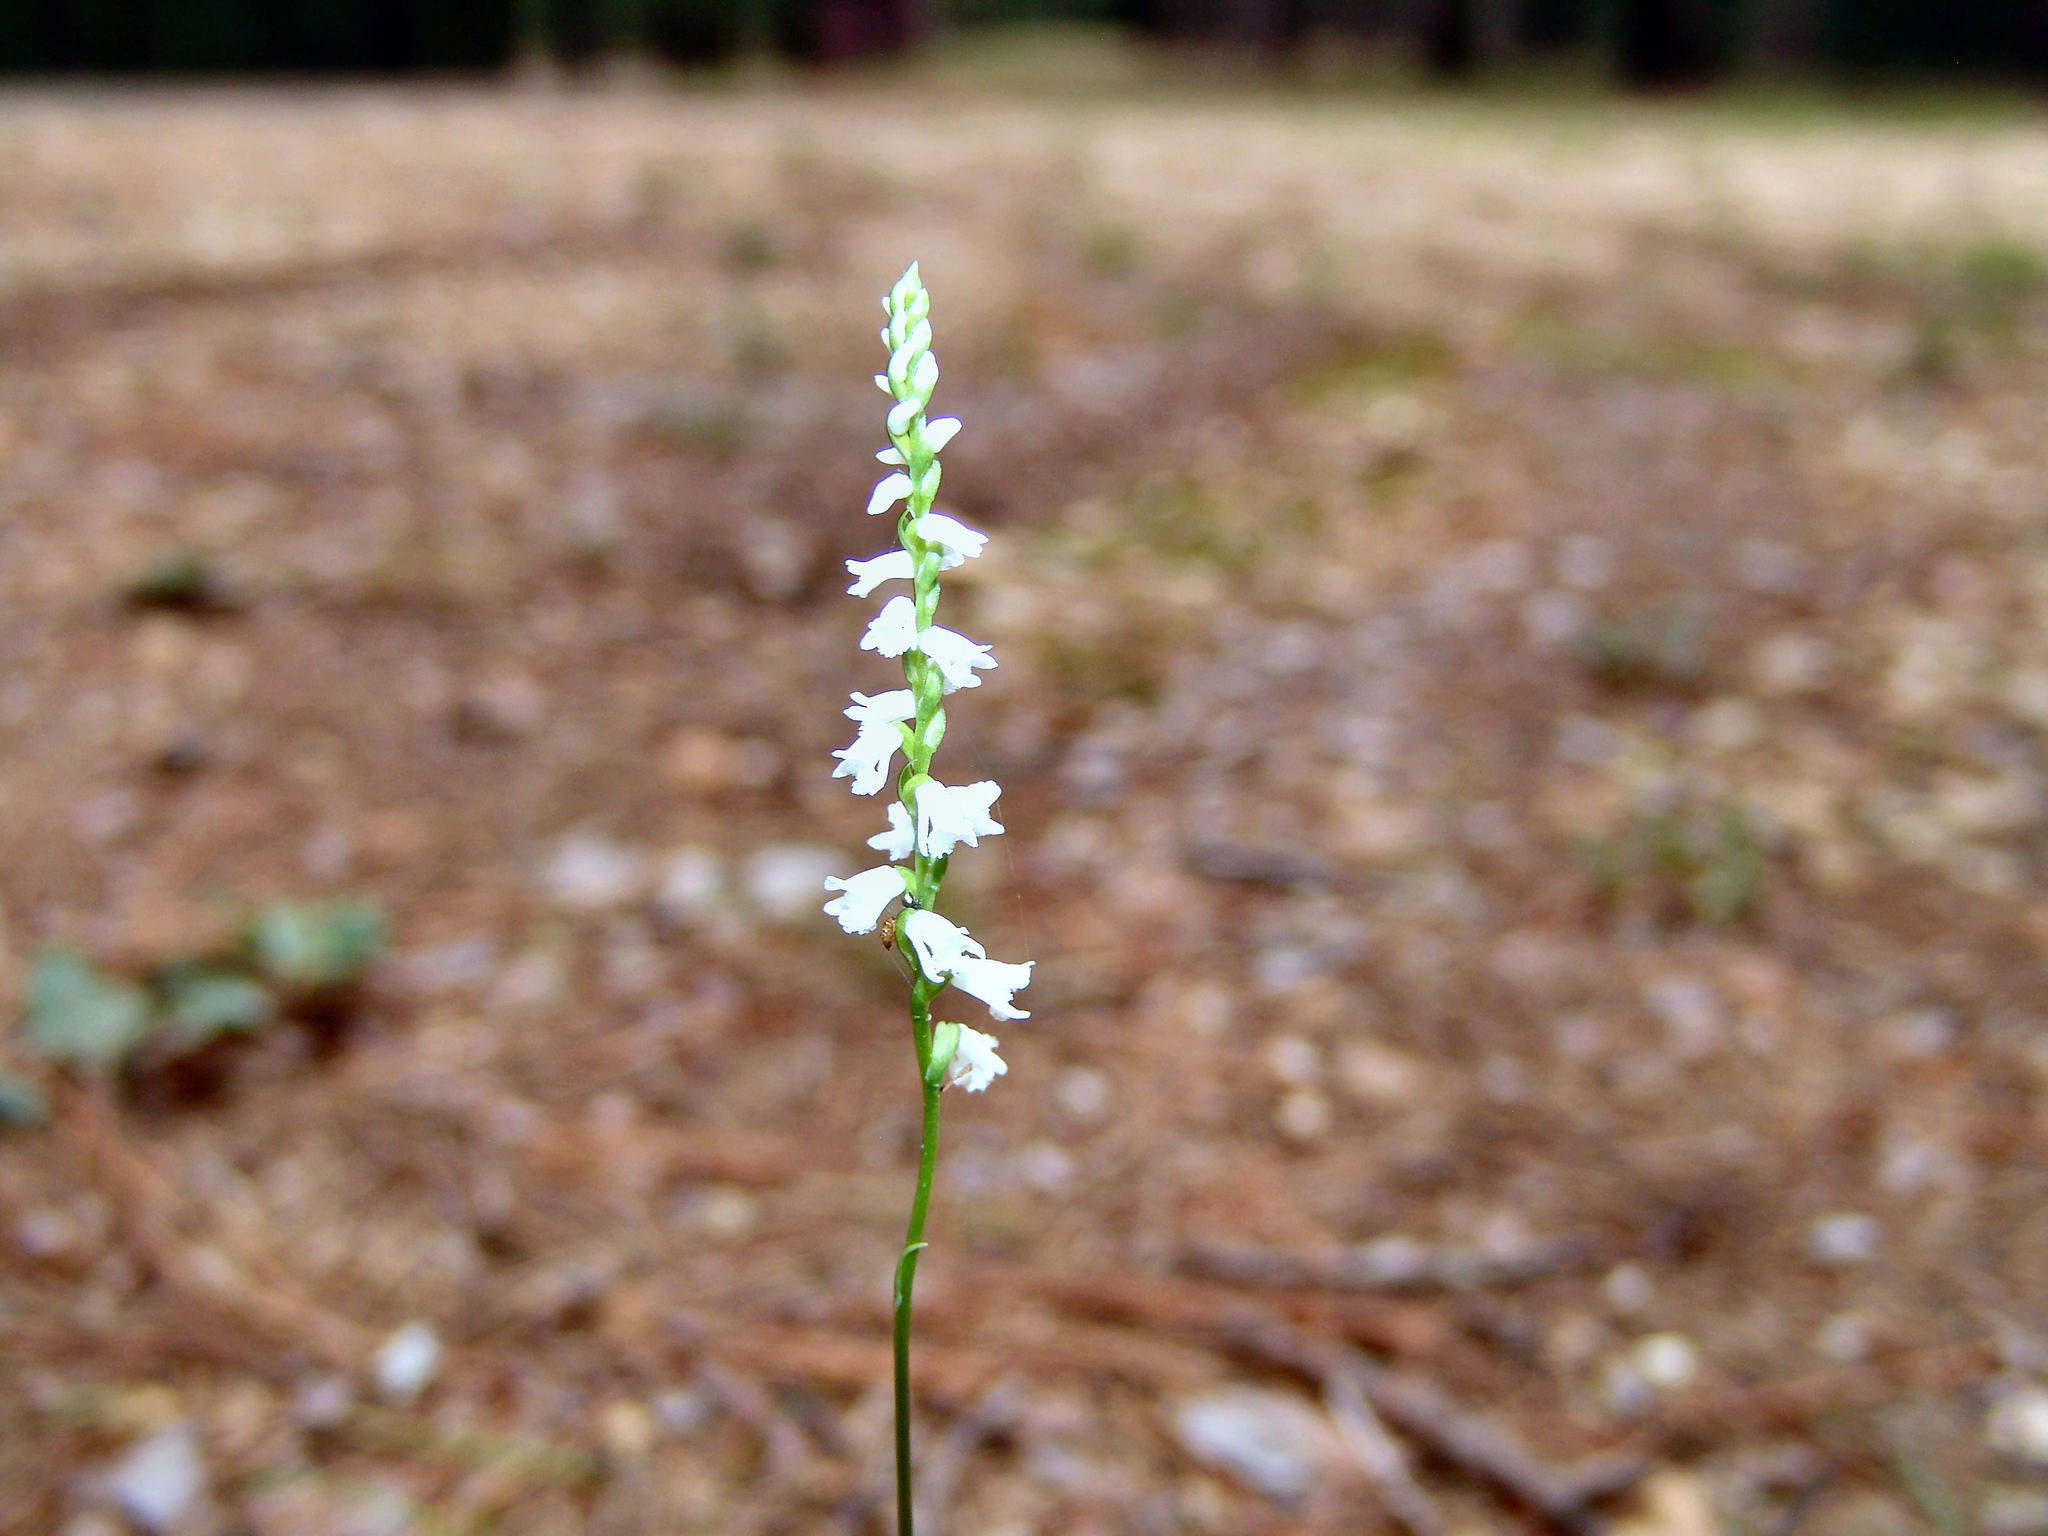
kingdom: Plantae
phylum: Tracheophyta
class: Liliopsida
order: Asparagales
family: Orchidaceae
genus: Spiranthes
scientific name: Spiranthes tuberosa
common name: Little ladies'-tresses
